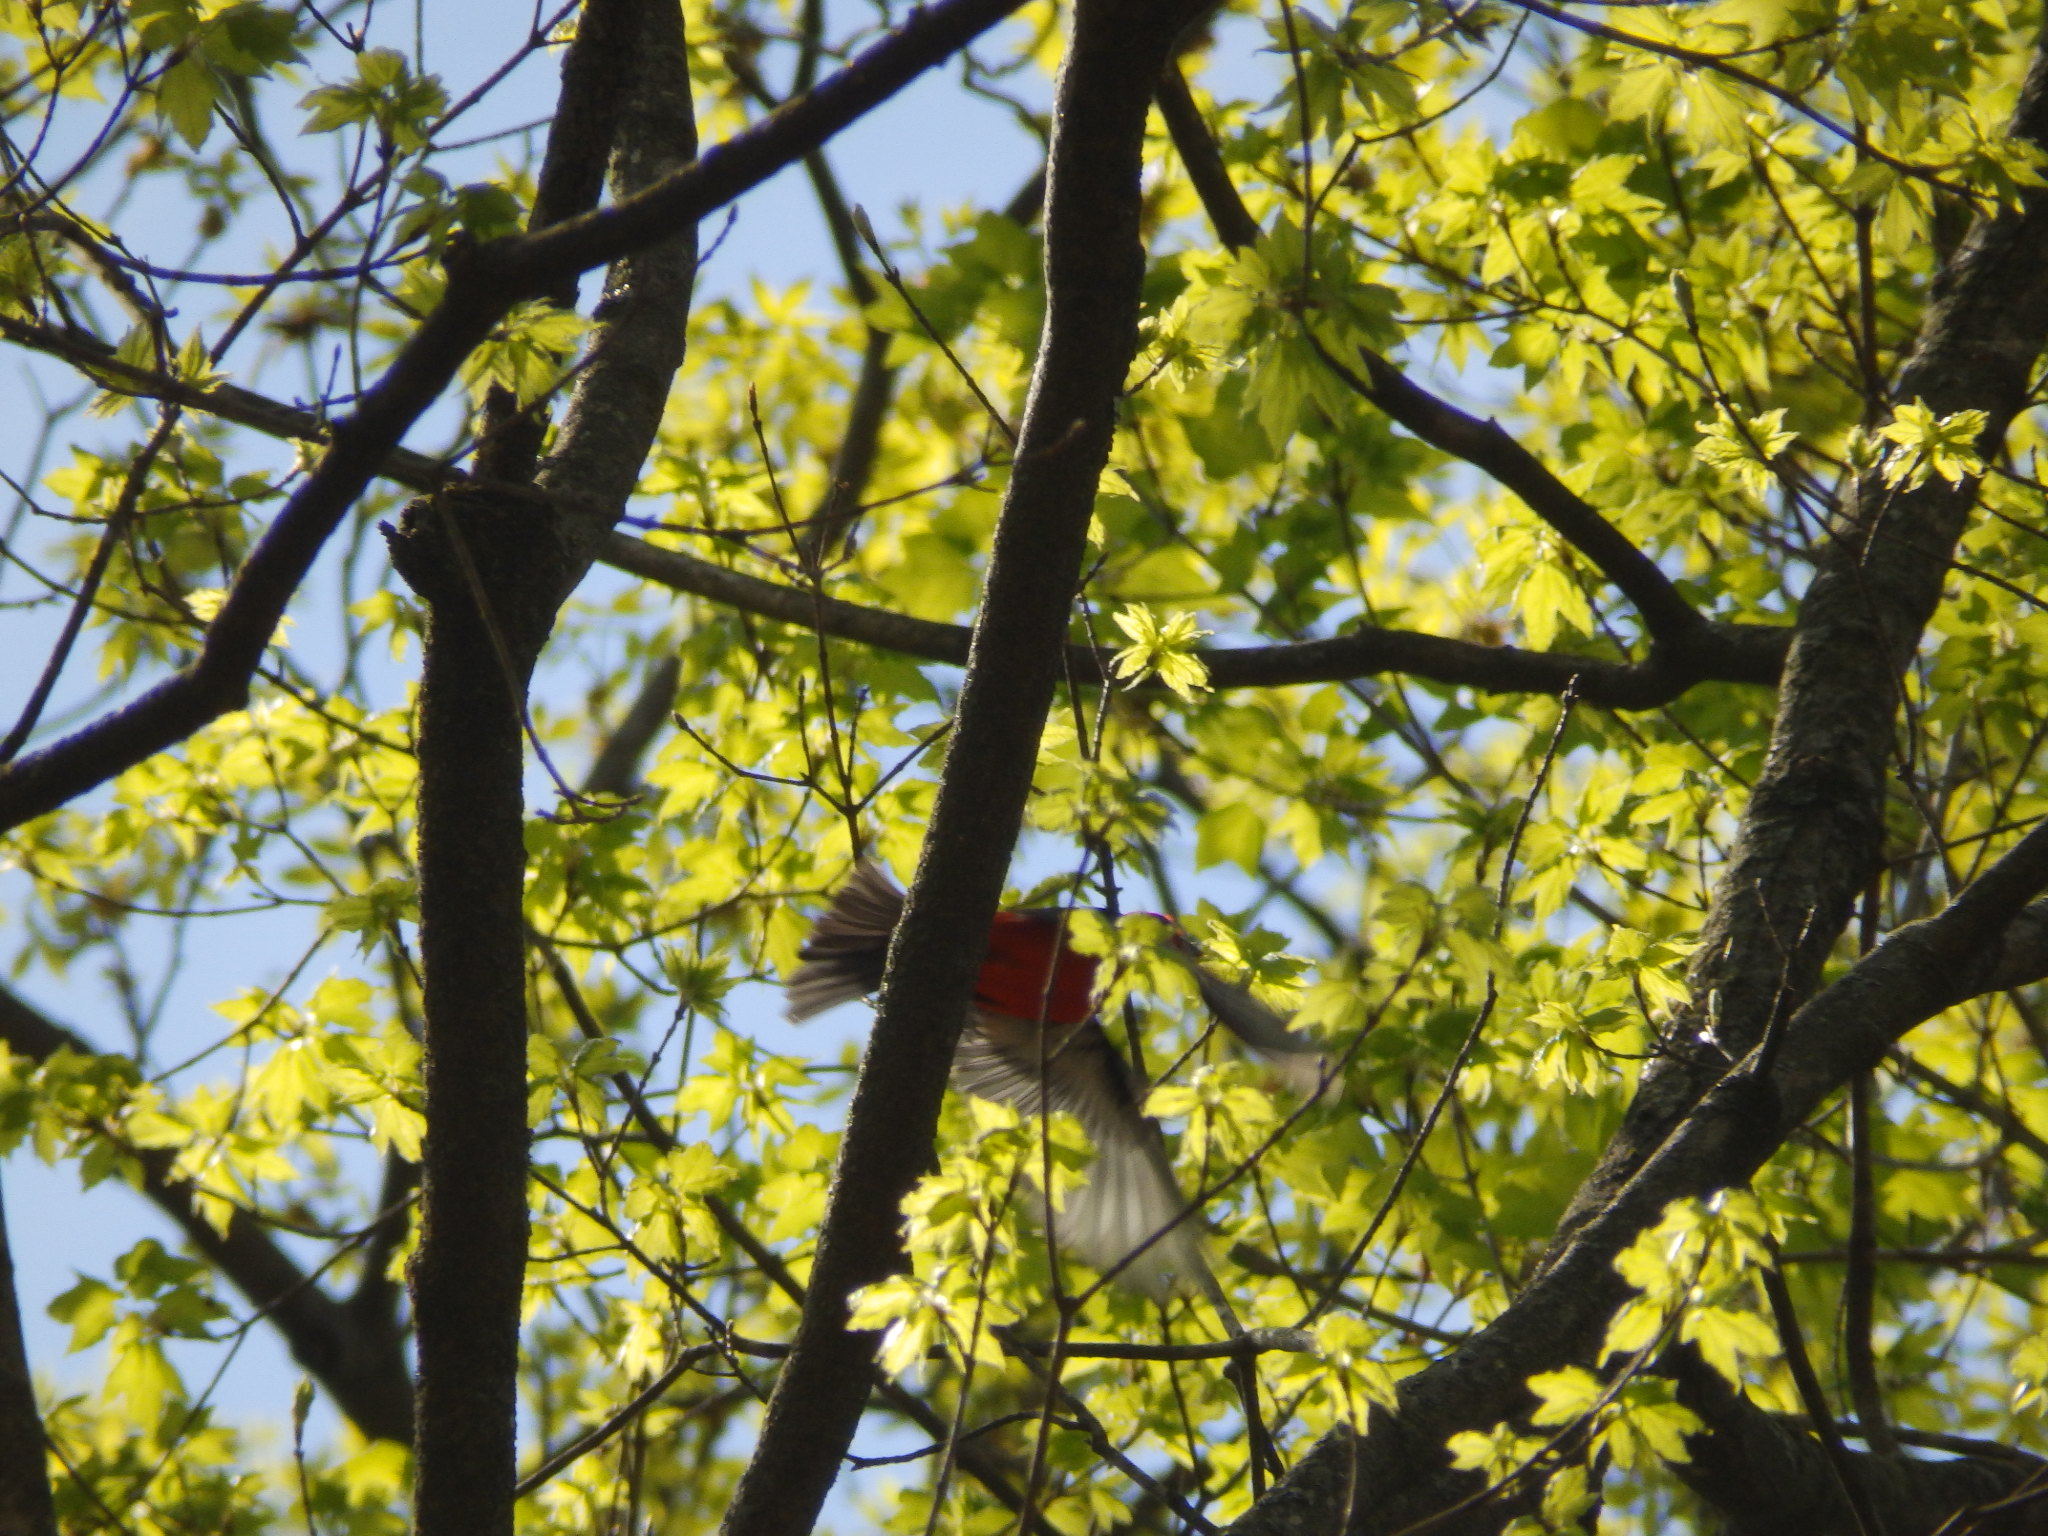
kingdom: Animalia
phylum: Chordata
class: Aves
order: Passeriformes
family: Cardinalidae
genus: Piranga
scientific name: Piranga olivacea
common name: Scarlet tanager
